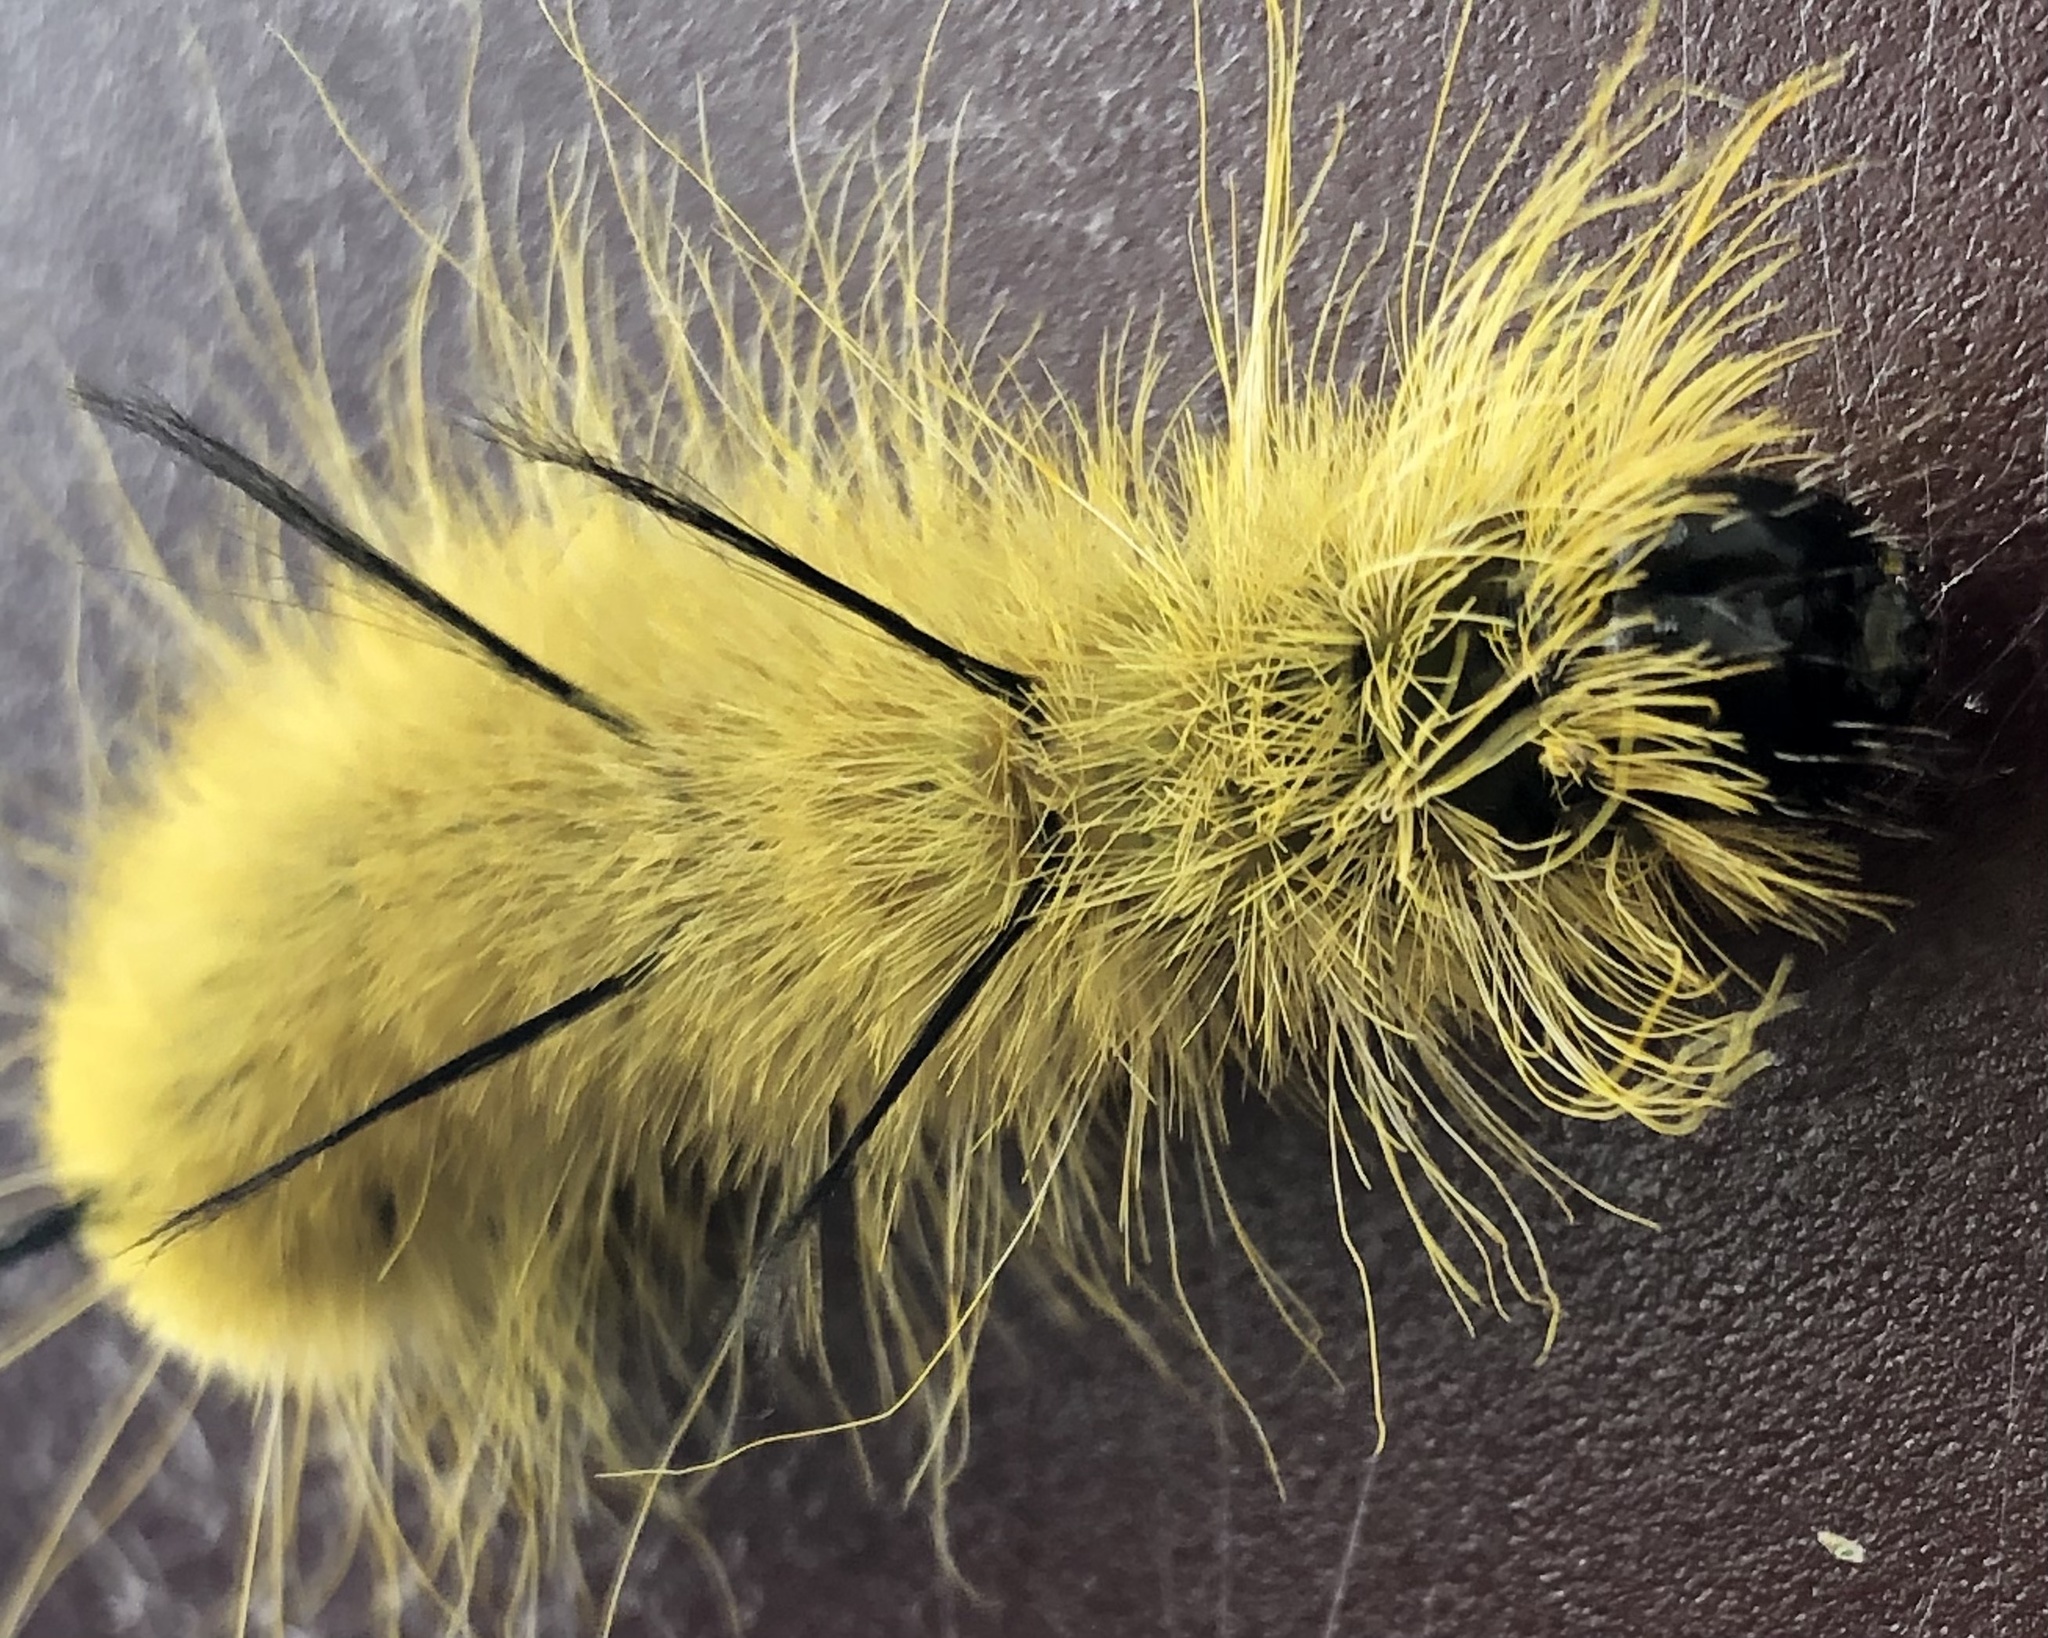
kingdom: Animalia
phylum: Arthropoda
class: Insecta
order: Lepidoptera
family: Noctuidae
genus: Acronicta
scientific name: Acronicta americana
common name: American dagger
